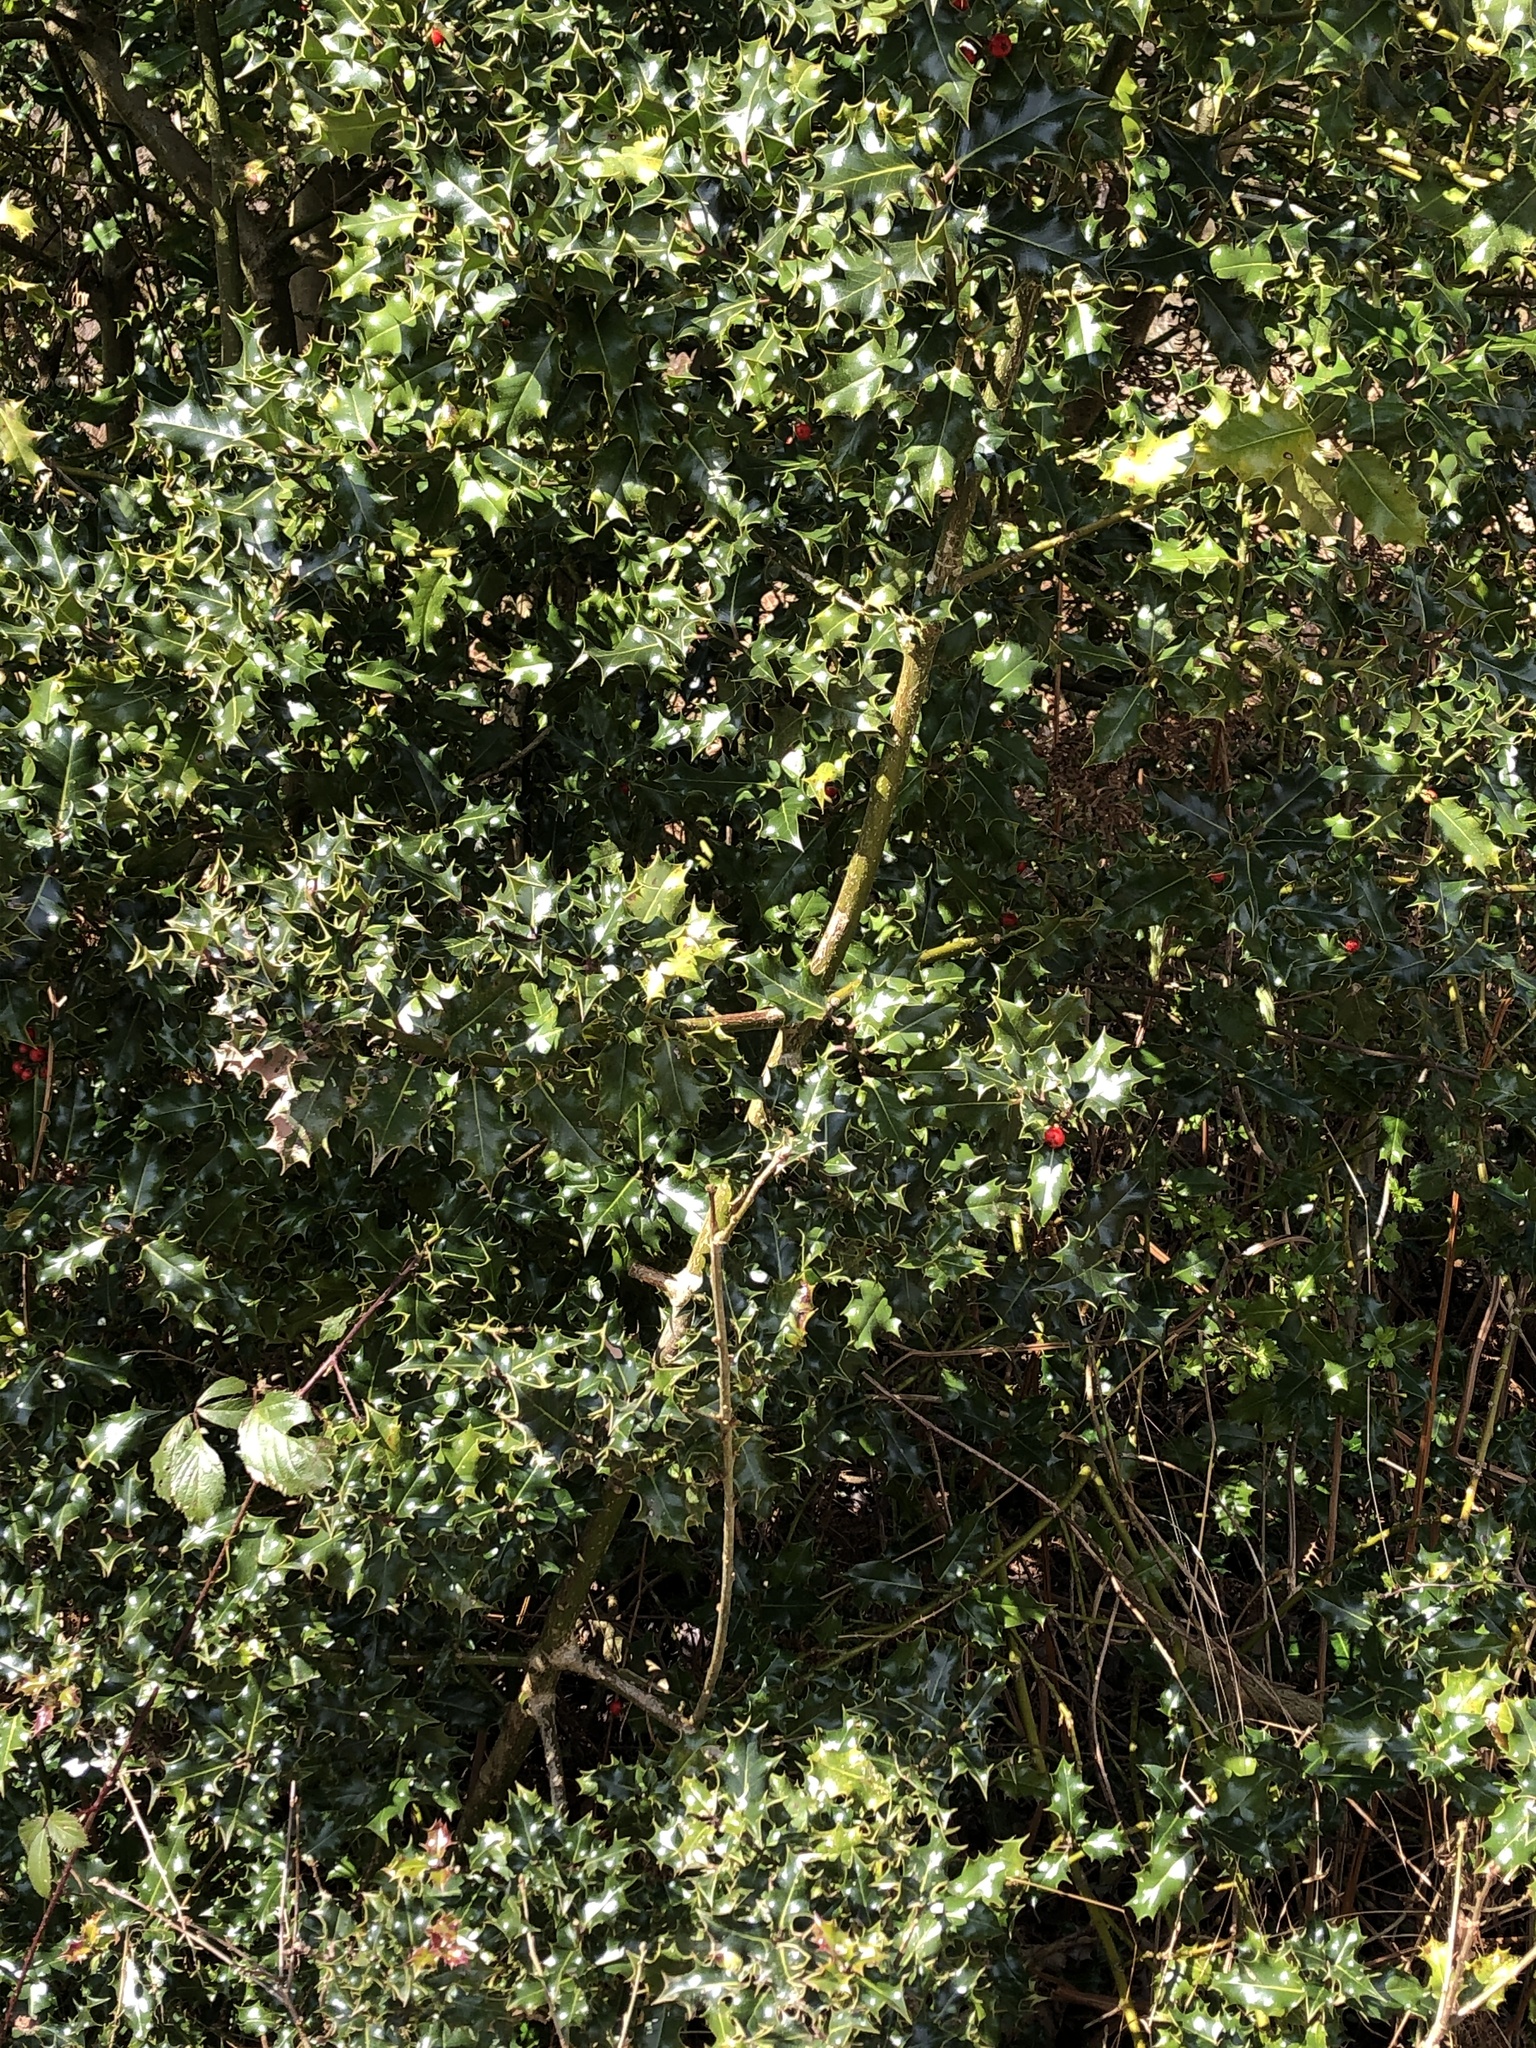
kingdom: Plantae
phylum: Tracheophyta
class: Magnoliopsida
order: Aquifoliales
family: Aquifoliaceae
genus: Ilex
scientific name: Ilex aquifolium
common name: English holly
